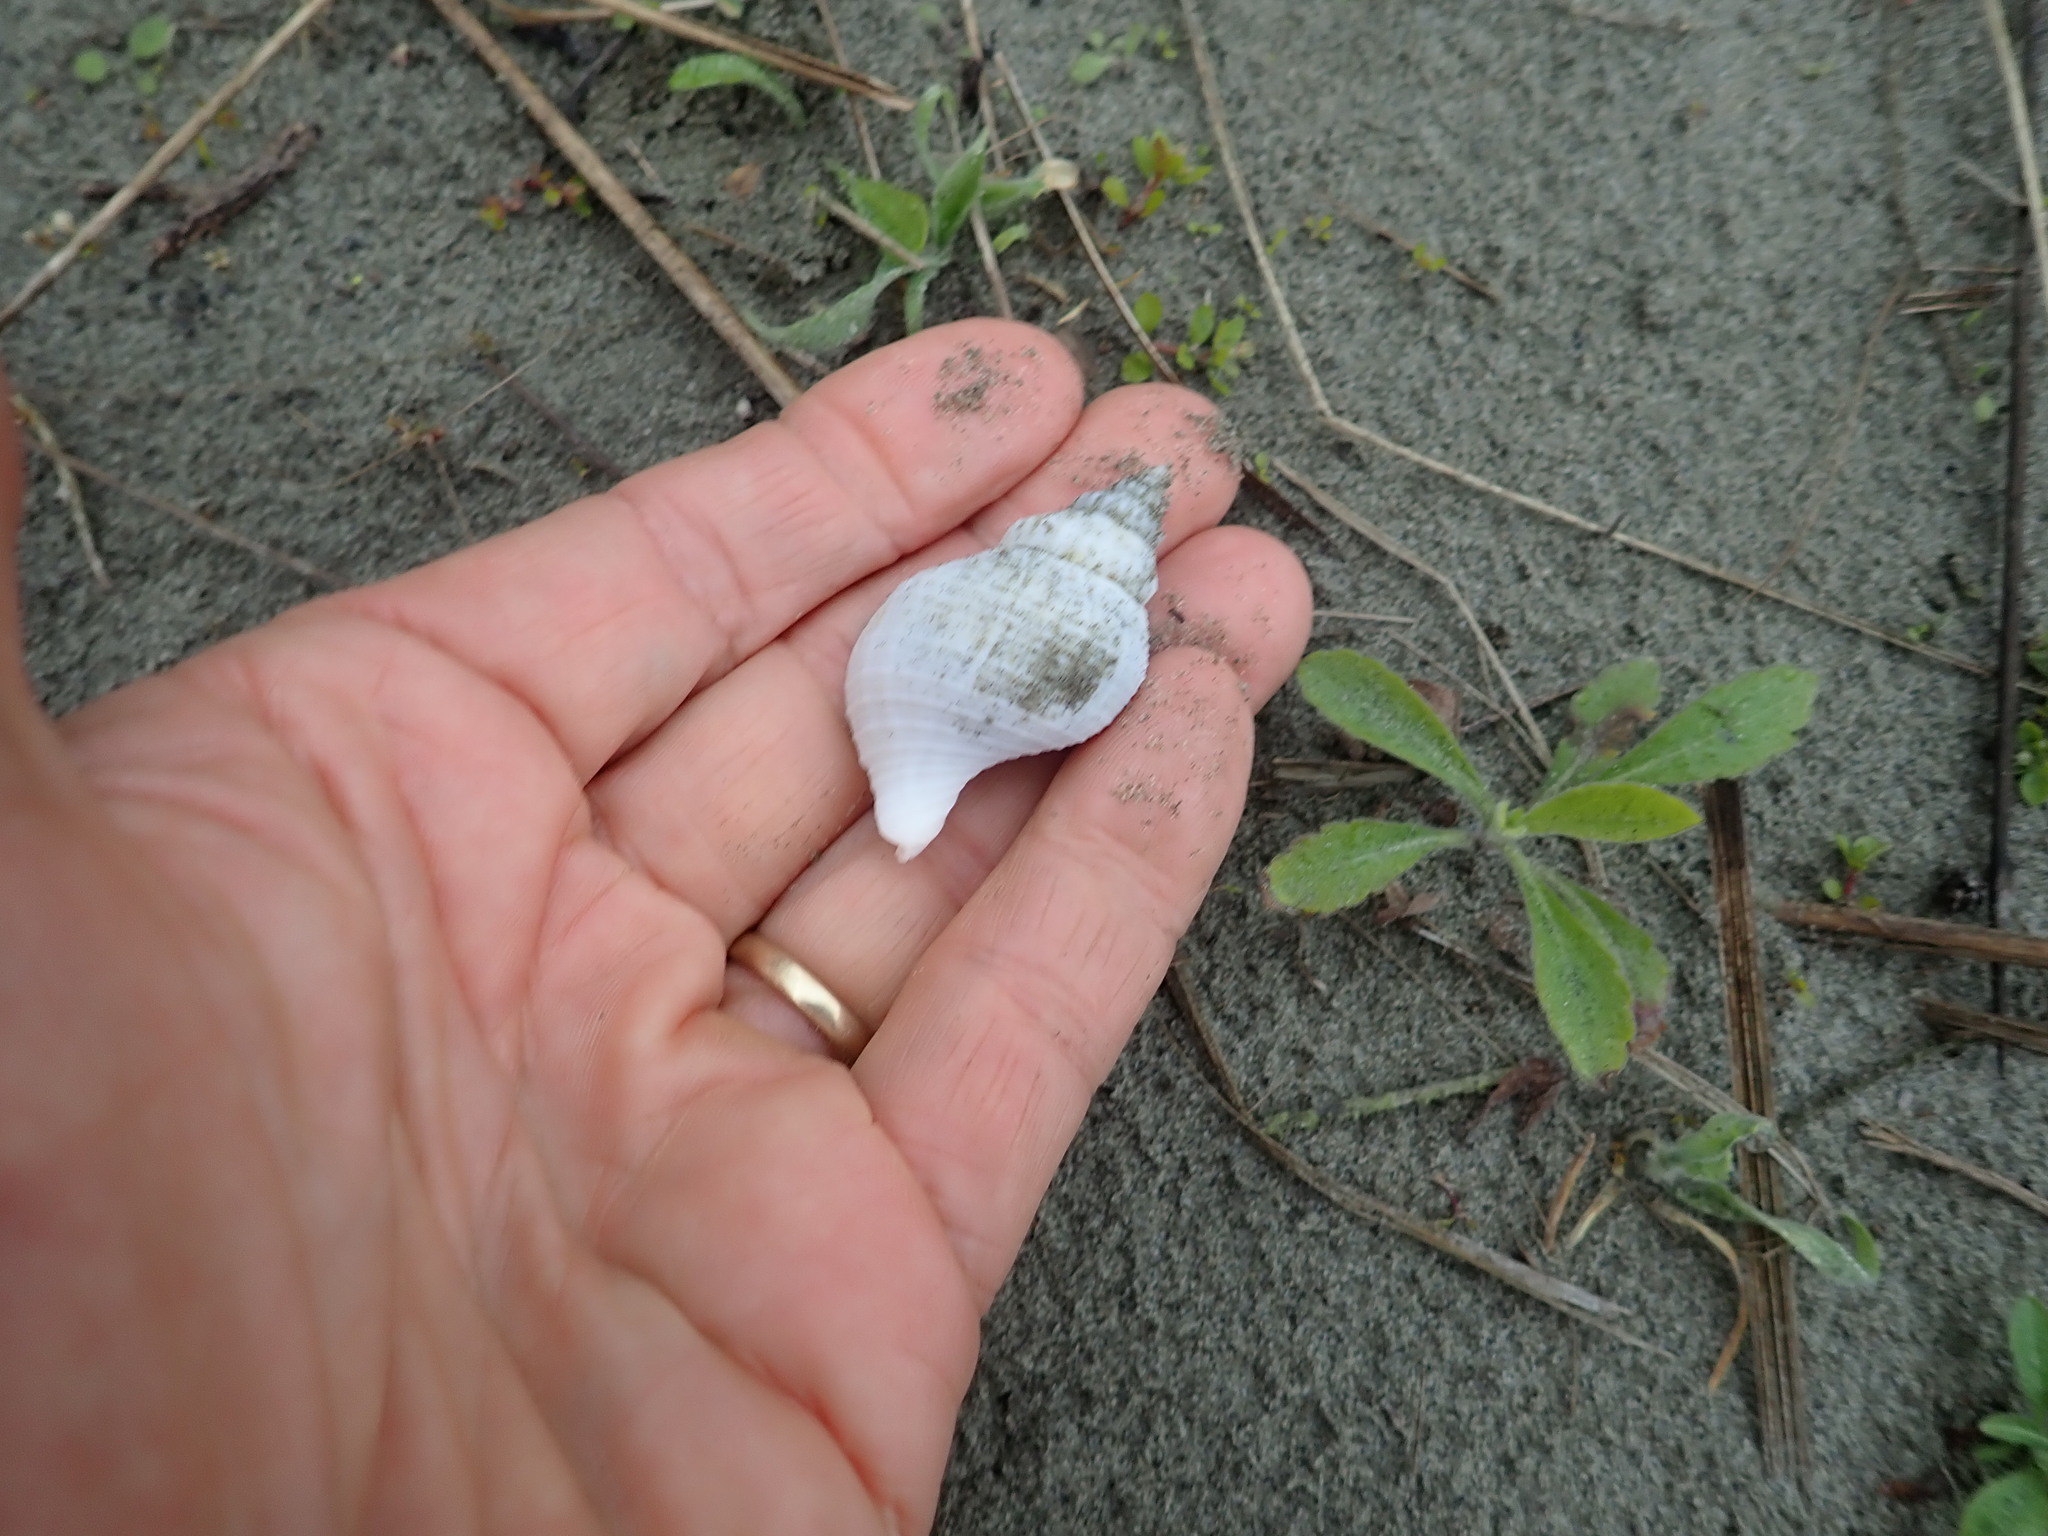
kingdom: Animalia
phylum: Mollusca
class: Gastropoda
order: Neogastropoda
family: Prosiphonidae
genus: Austrofusus
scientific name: Austrofusus glans
